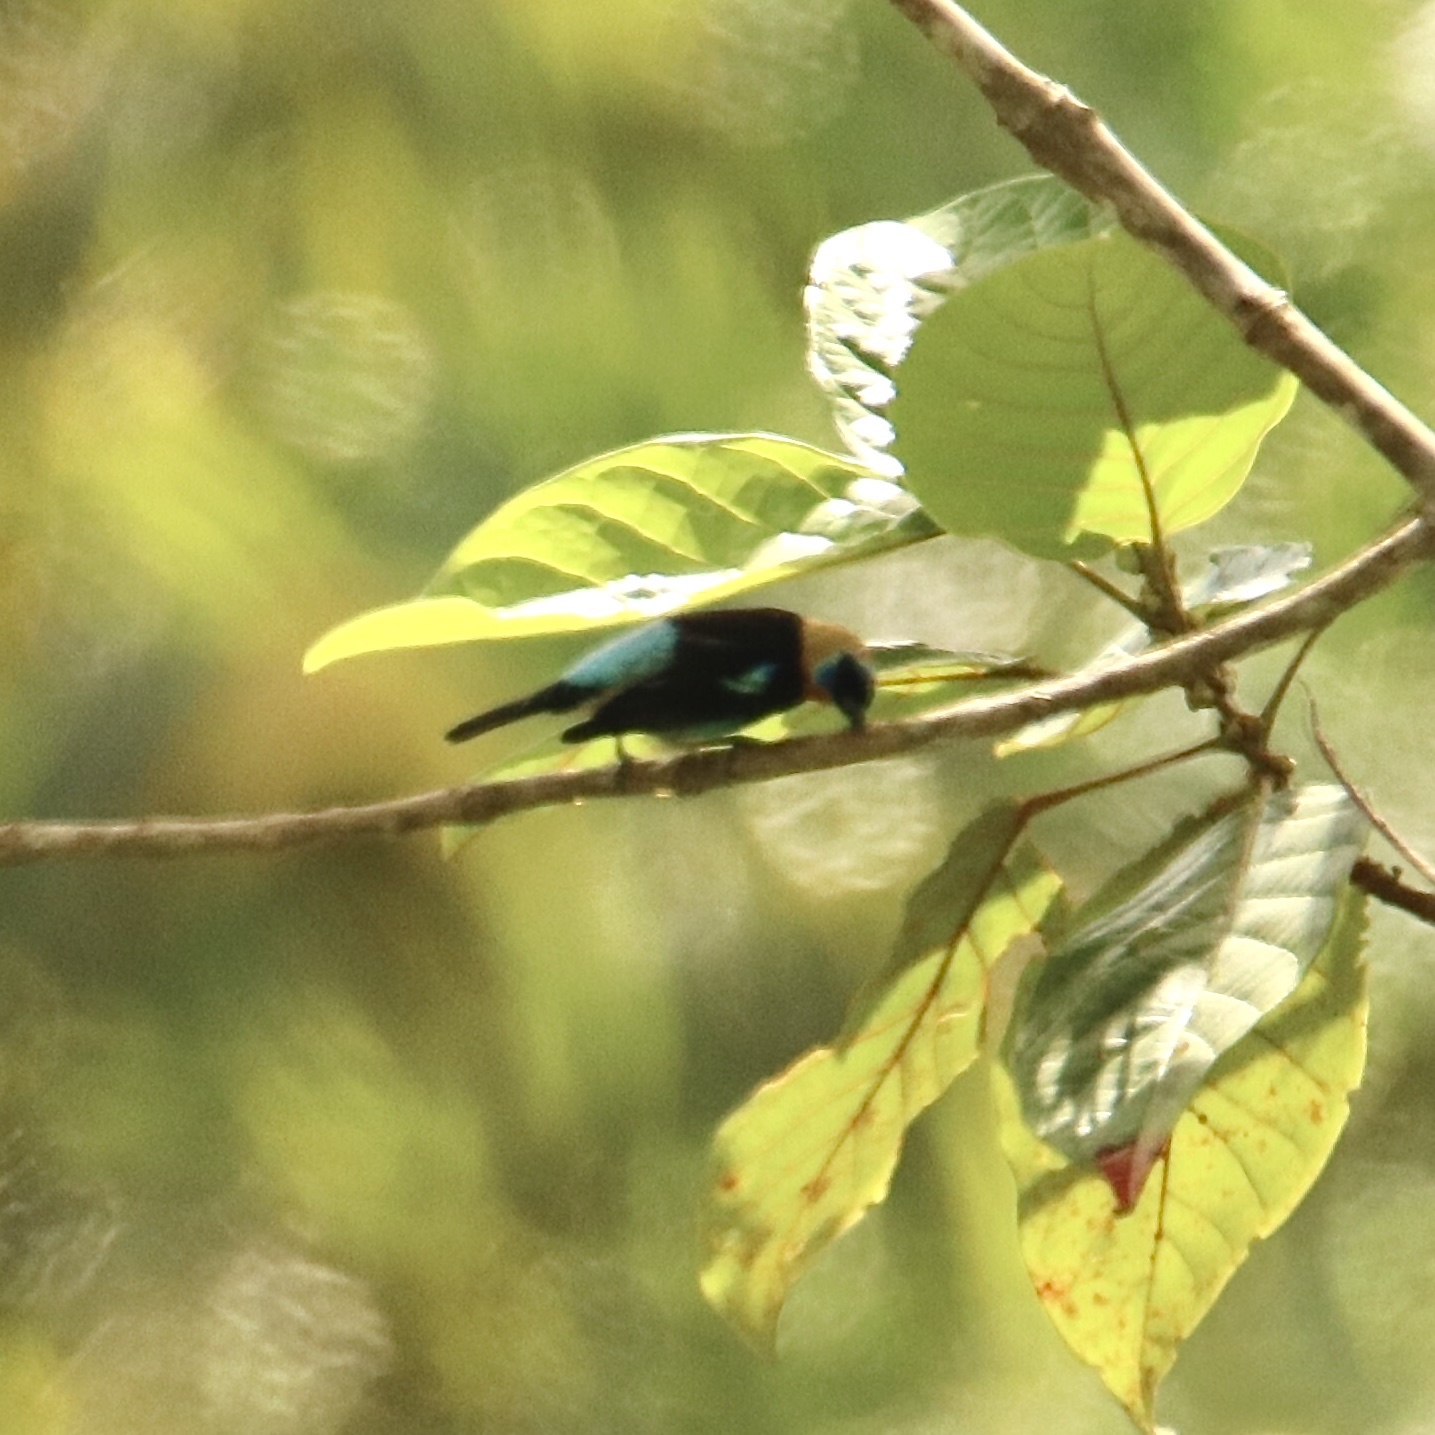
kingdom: Animalia
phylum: Chordata
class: Aves
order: Passeriformes
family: Thraupidae
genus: Stilpnia
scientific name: Stilpnia larvata
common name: Golden-hooded tanager
